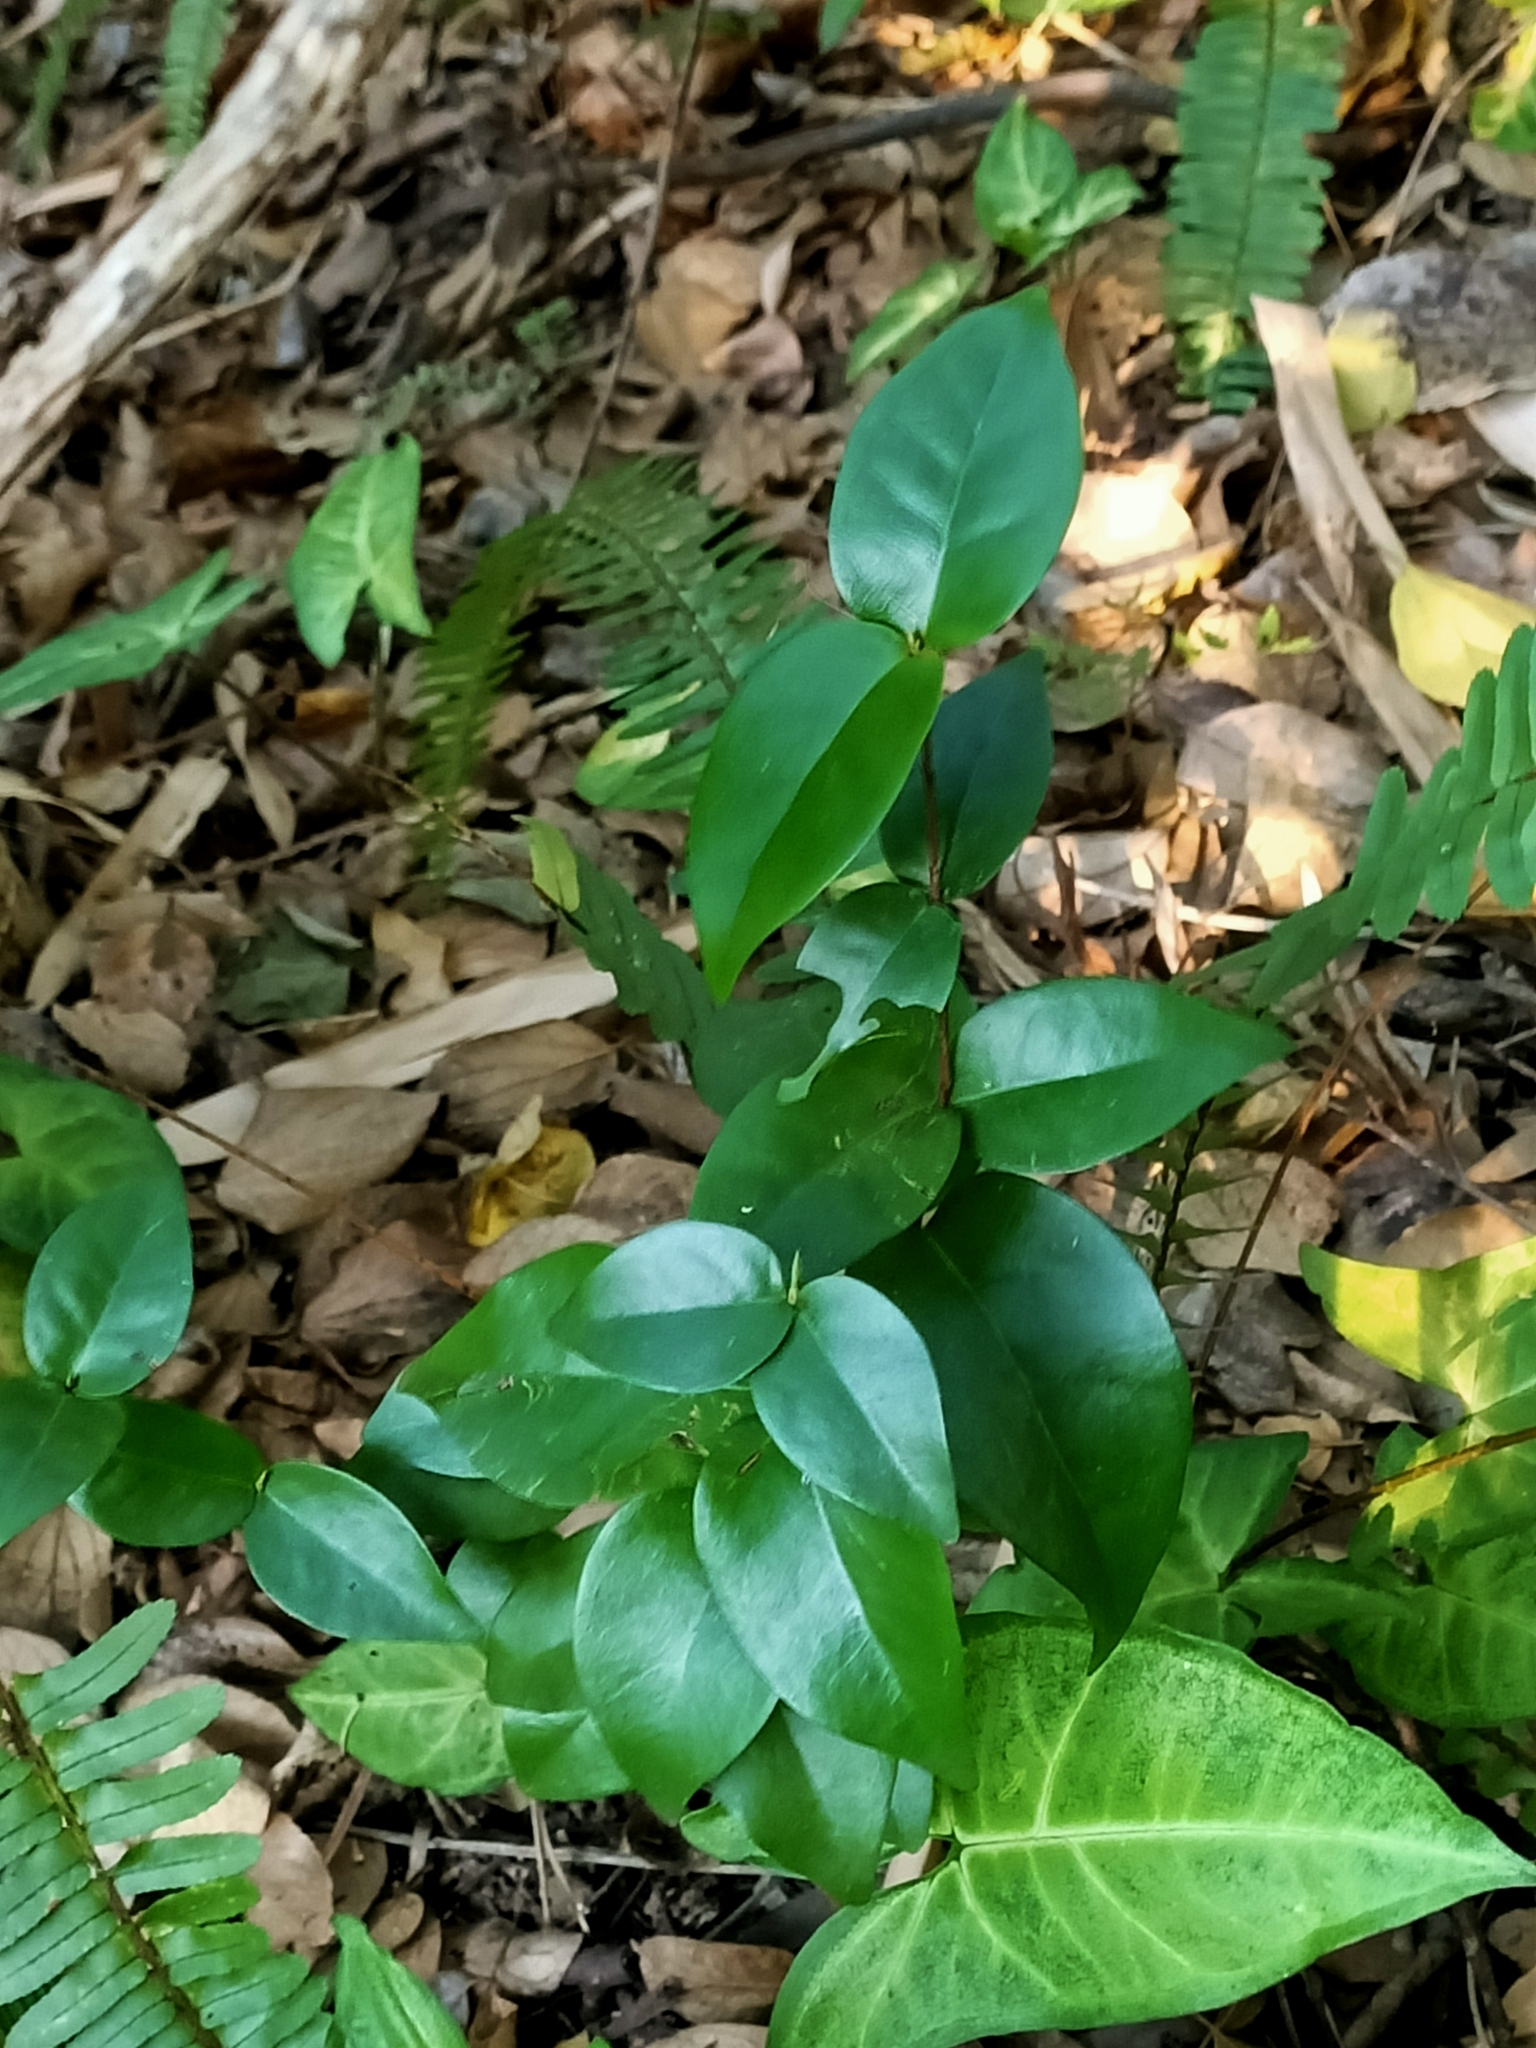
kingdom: Plantae
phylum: Tracheophyta
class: Magnoliopsida
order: Myrtales
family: Myrtaceae
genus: Eugenia
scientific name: Eugenia uniflora
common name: Surinam cherry
